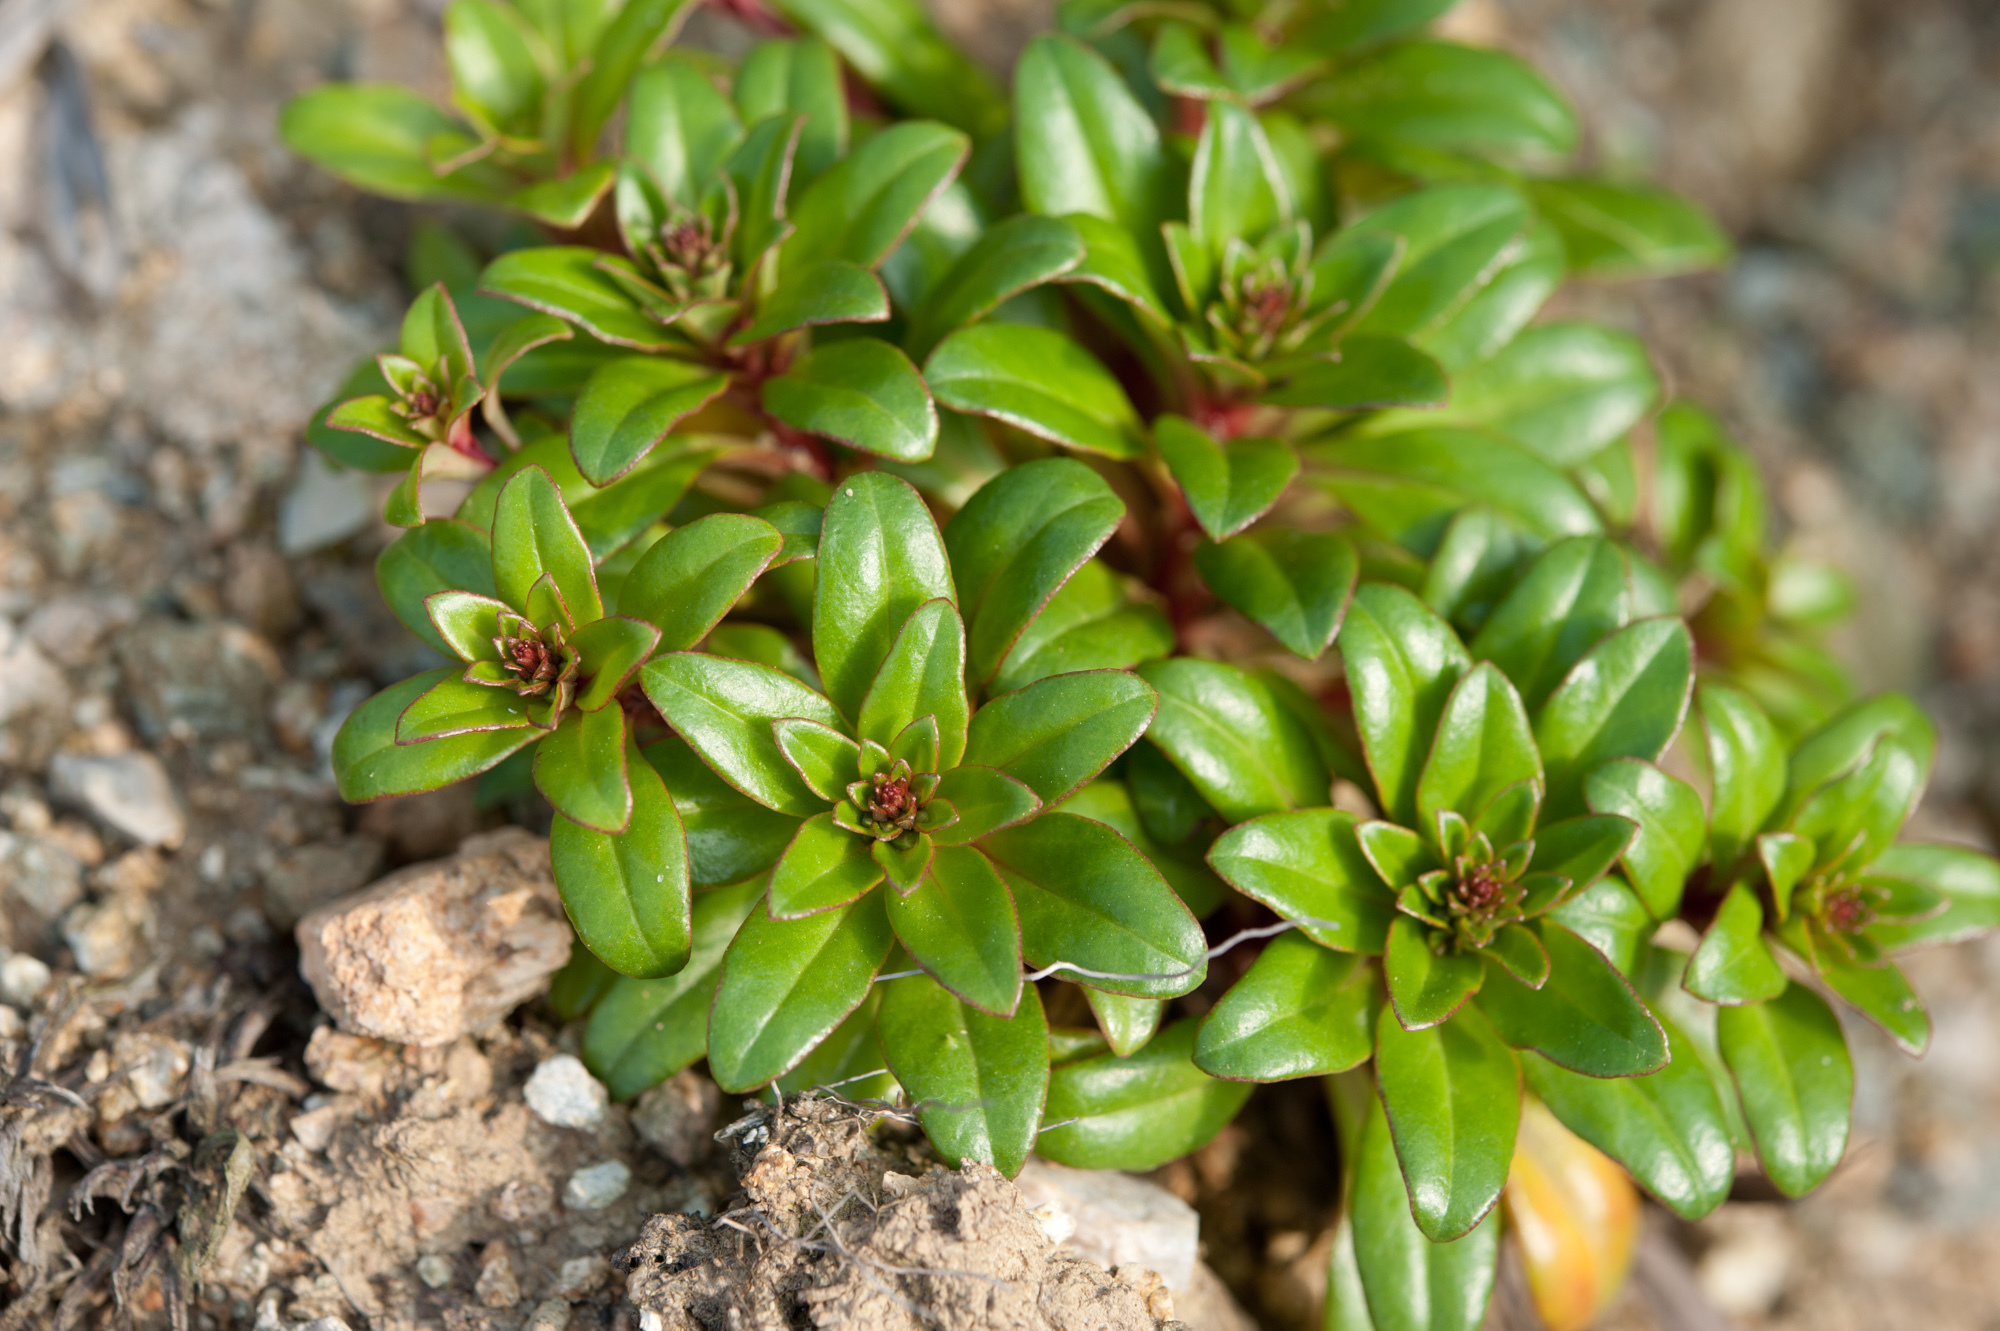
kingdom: Plantae
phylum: Tracheophyta
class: Magnoliopsida
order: Ericales
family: Primulaceae
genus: Lysimachia
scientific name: Lysimachia mauritiana
